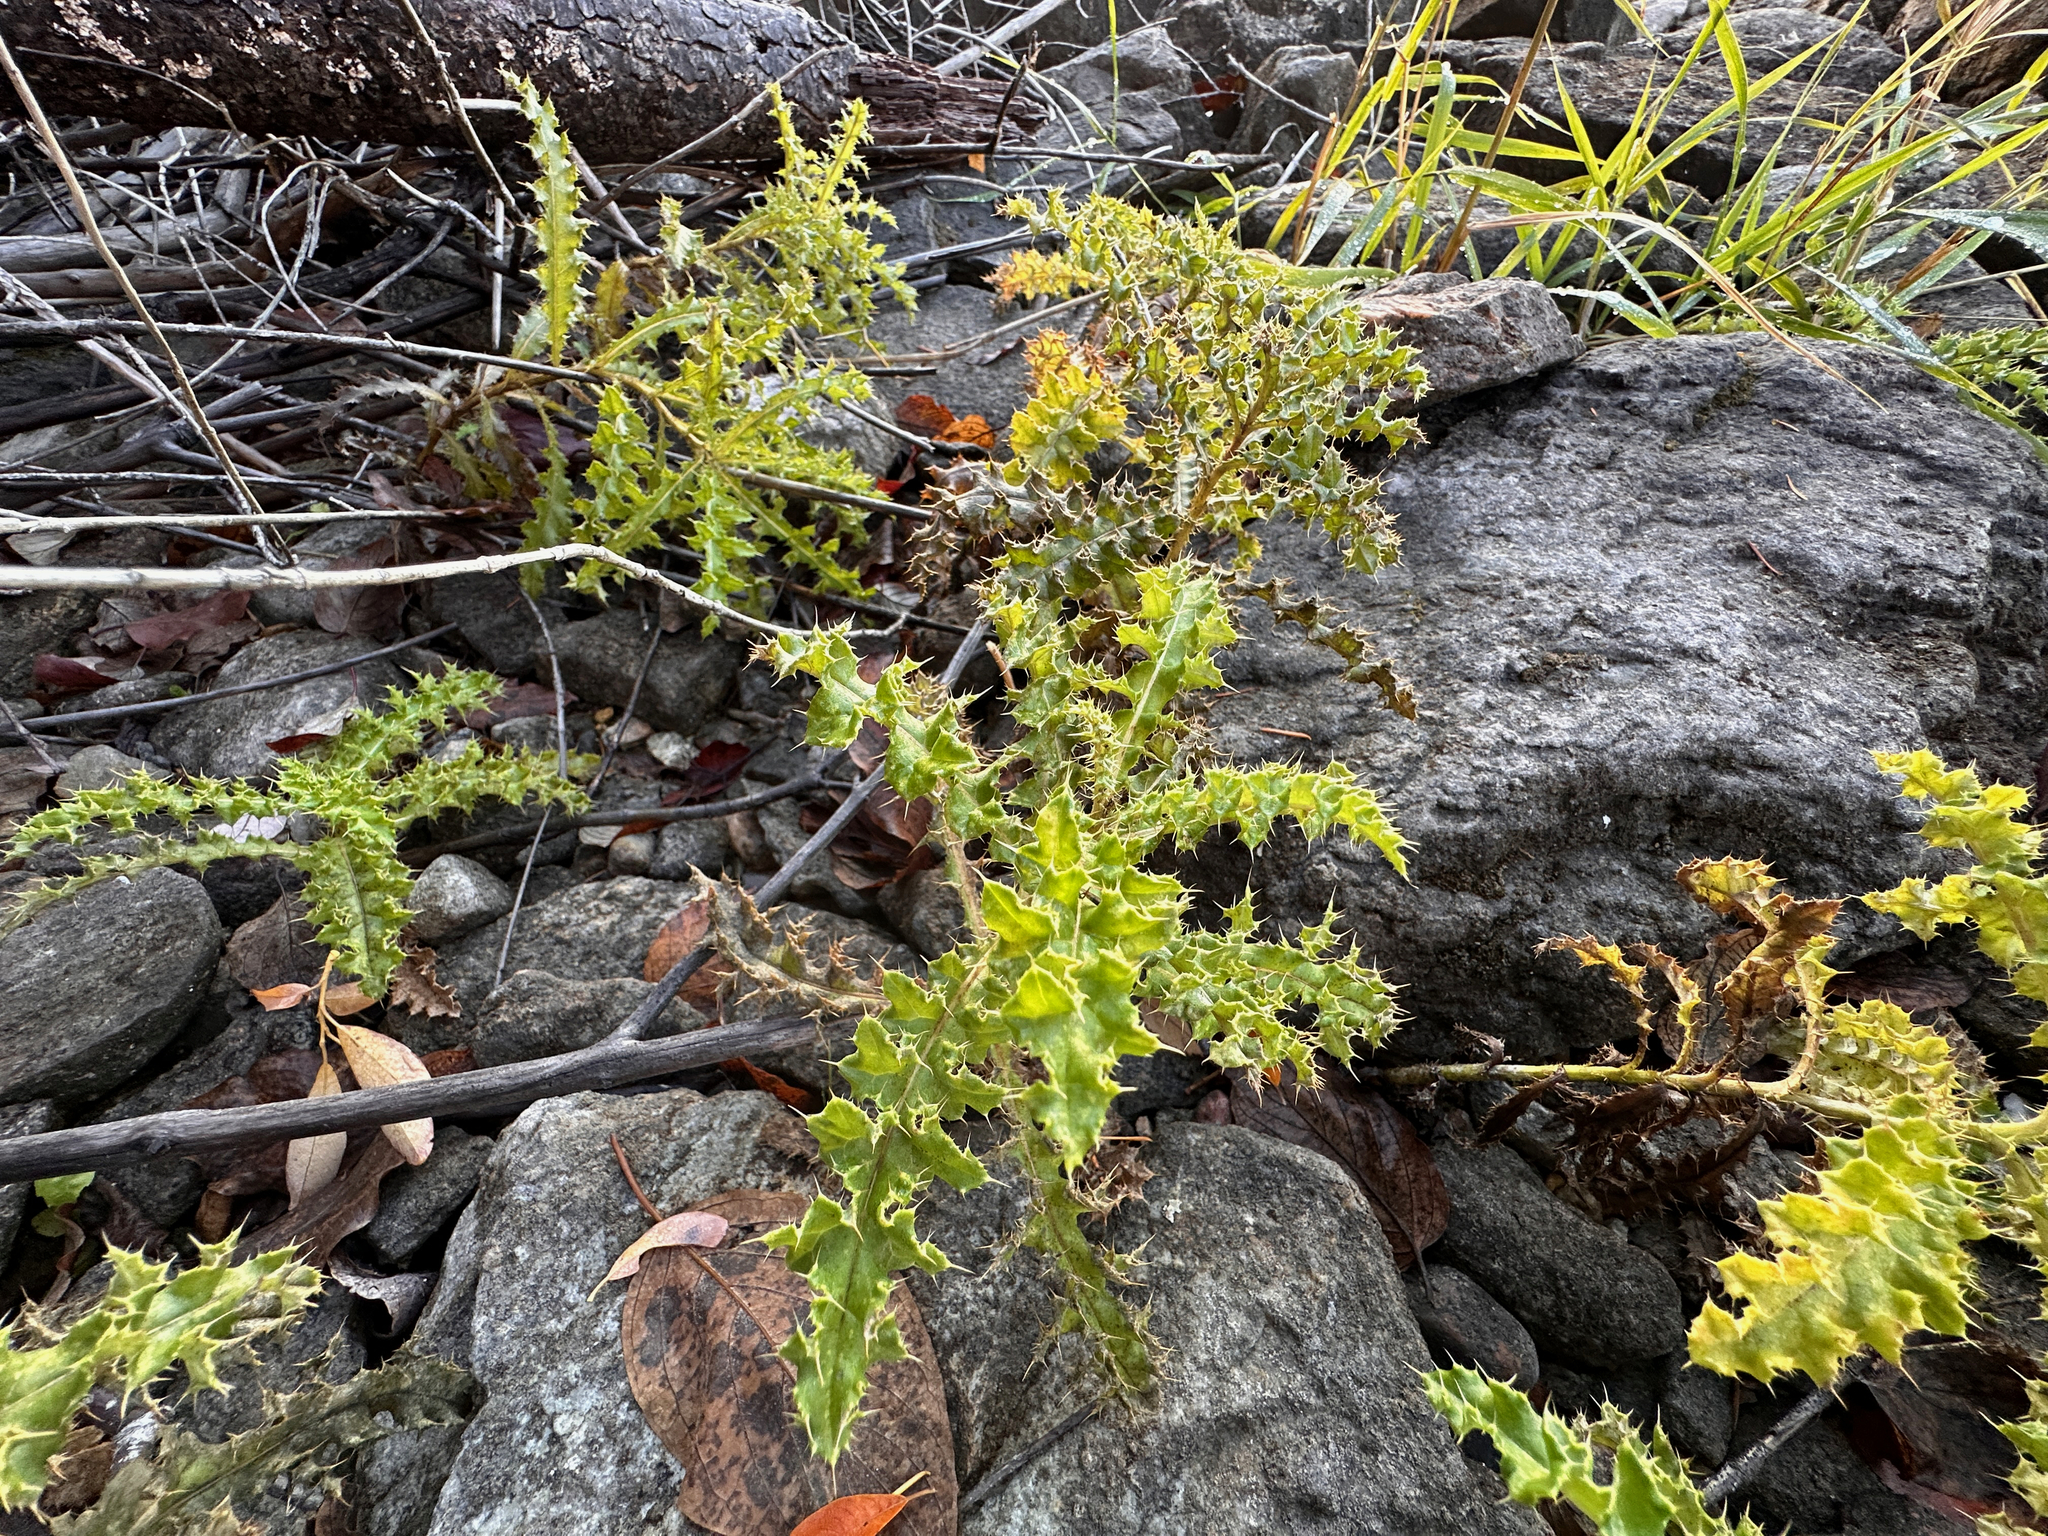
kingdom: Plantae
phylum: Tracheophyta
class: Magnoliopsida
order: Asterales
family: Asteraceae
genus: Cirsium
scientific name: Cirsium arvense
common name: Creeping thistle
